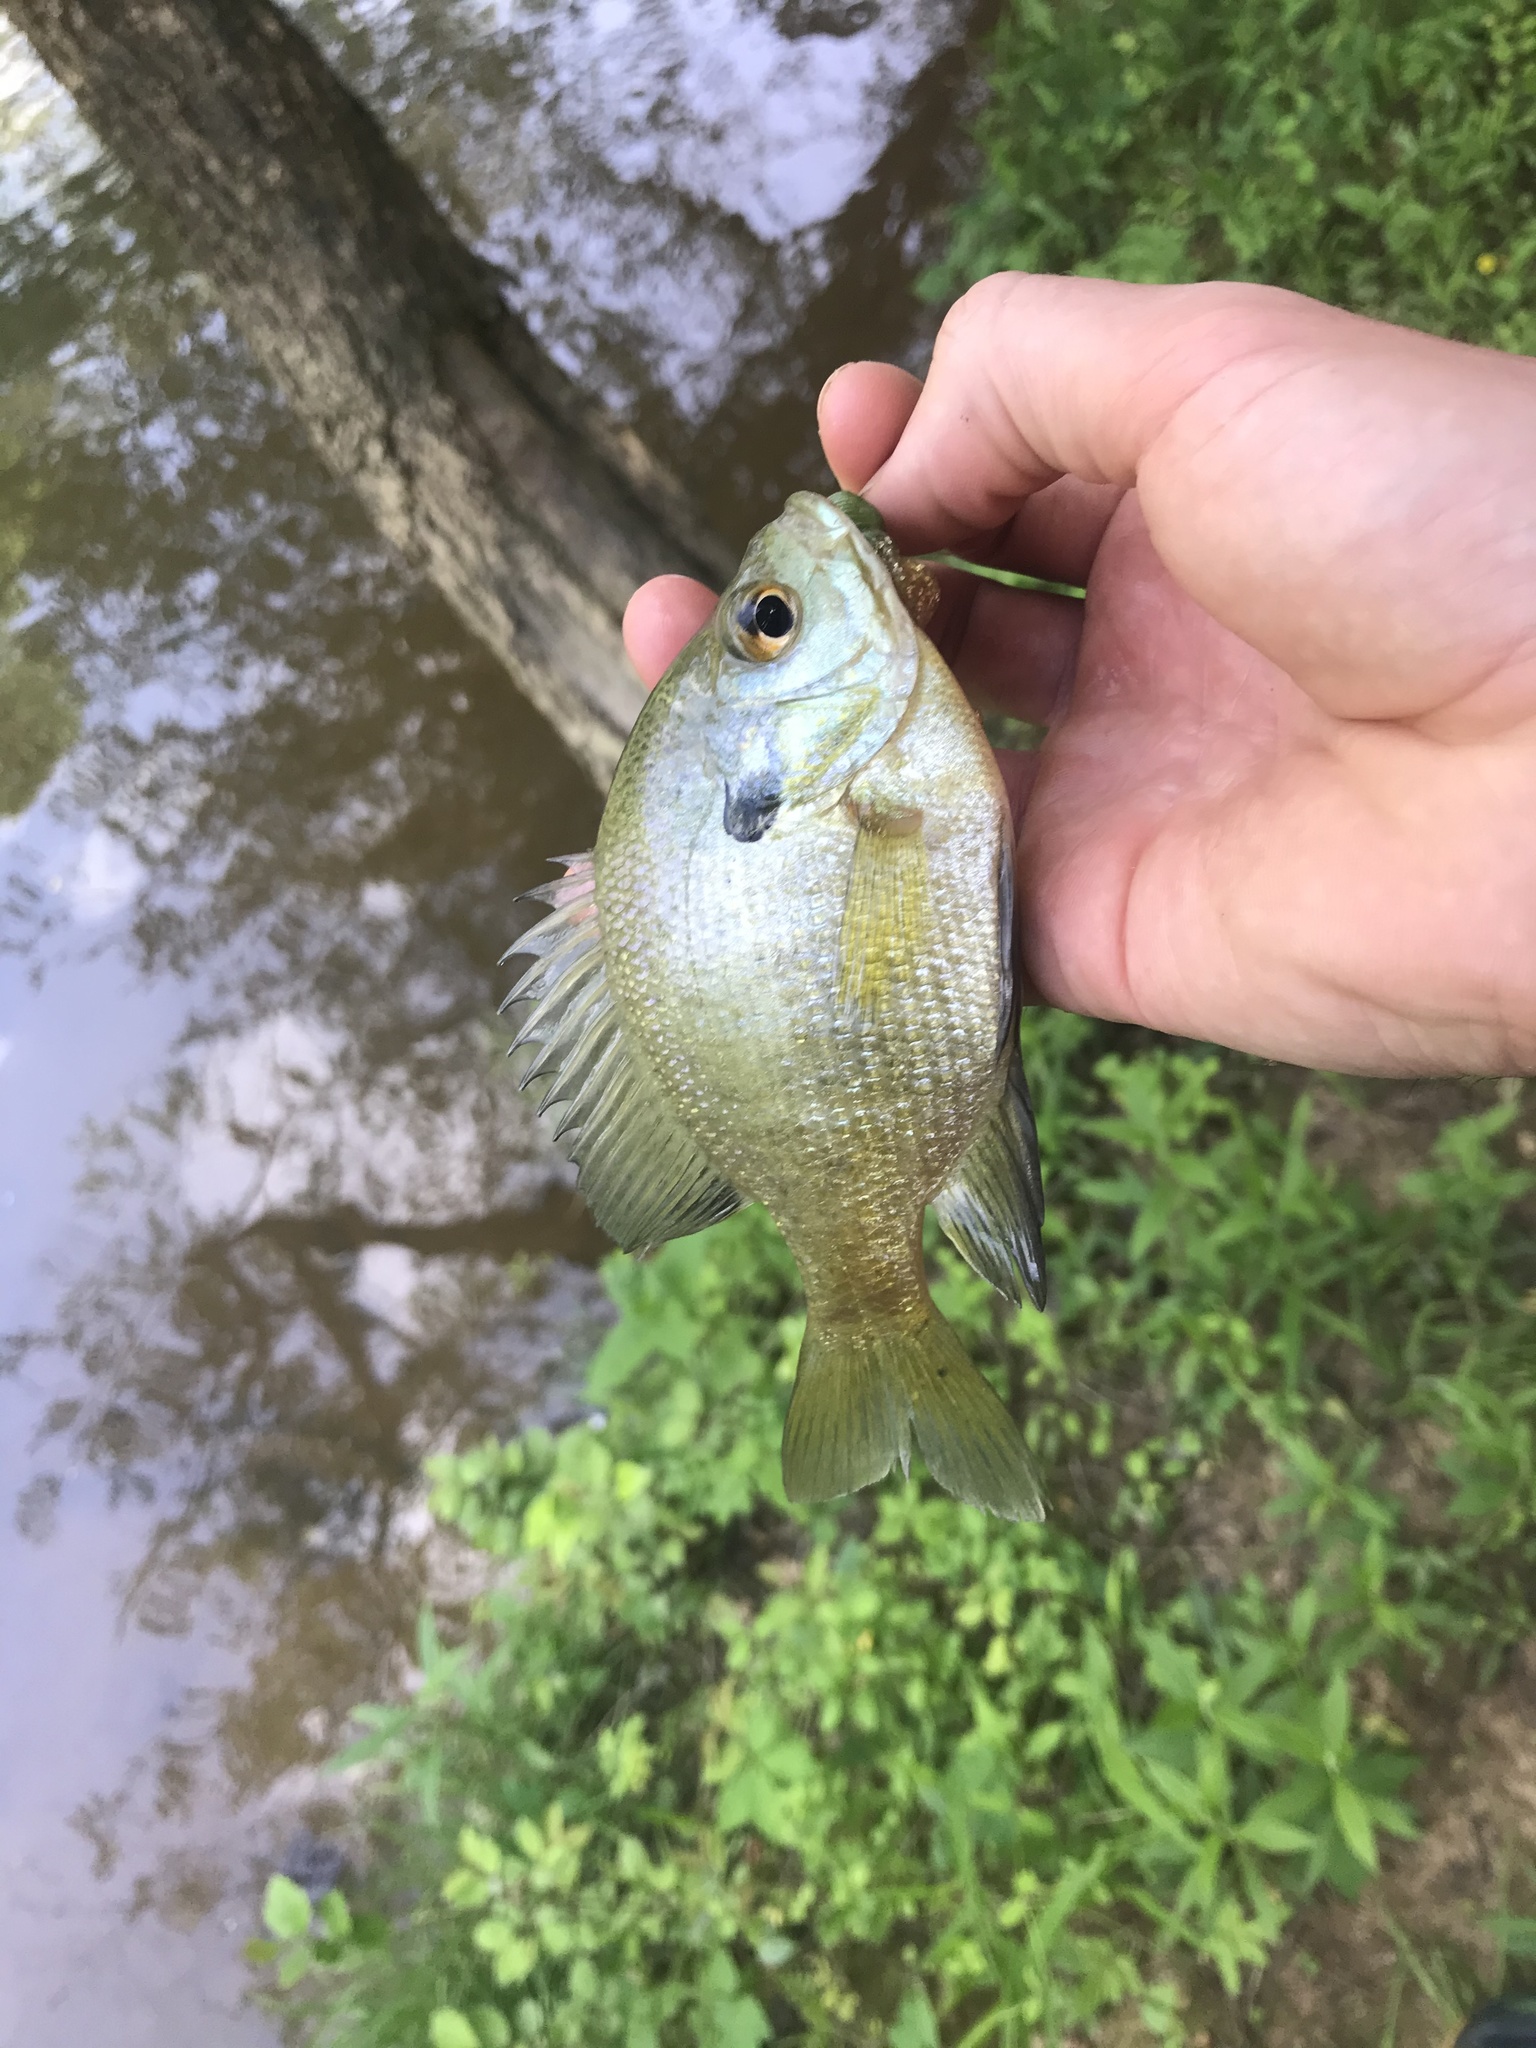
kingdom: Animalia
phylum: Chordata
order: Perciformes
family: Centrarchidae
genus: Lepomis
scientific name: Lepomis macrochirus
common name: Bluegill
